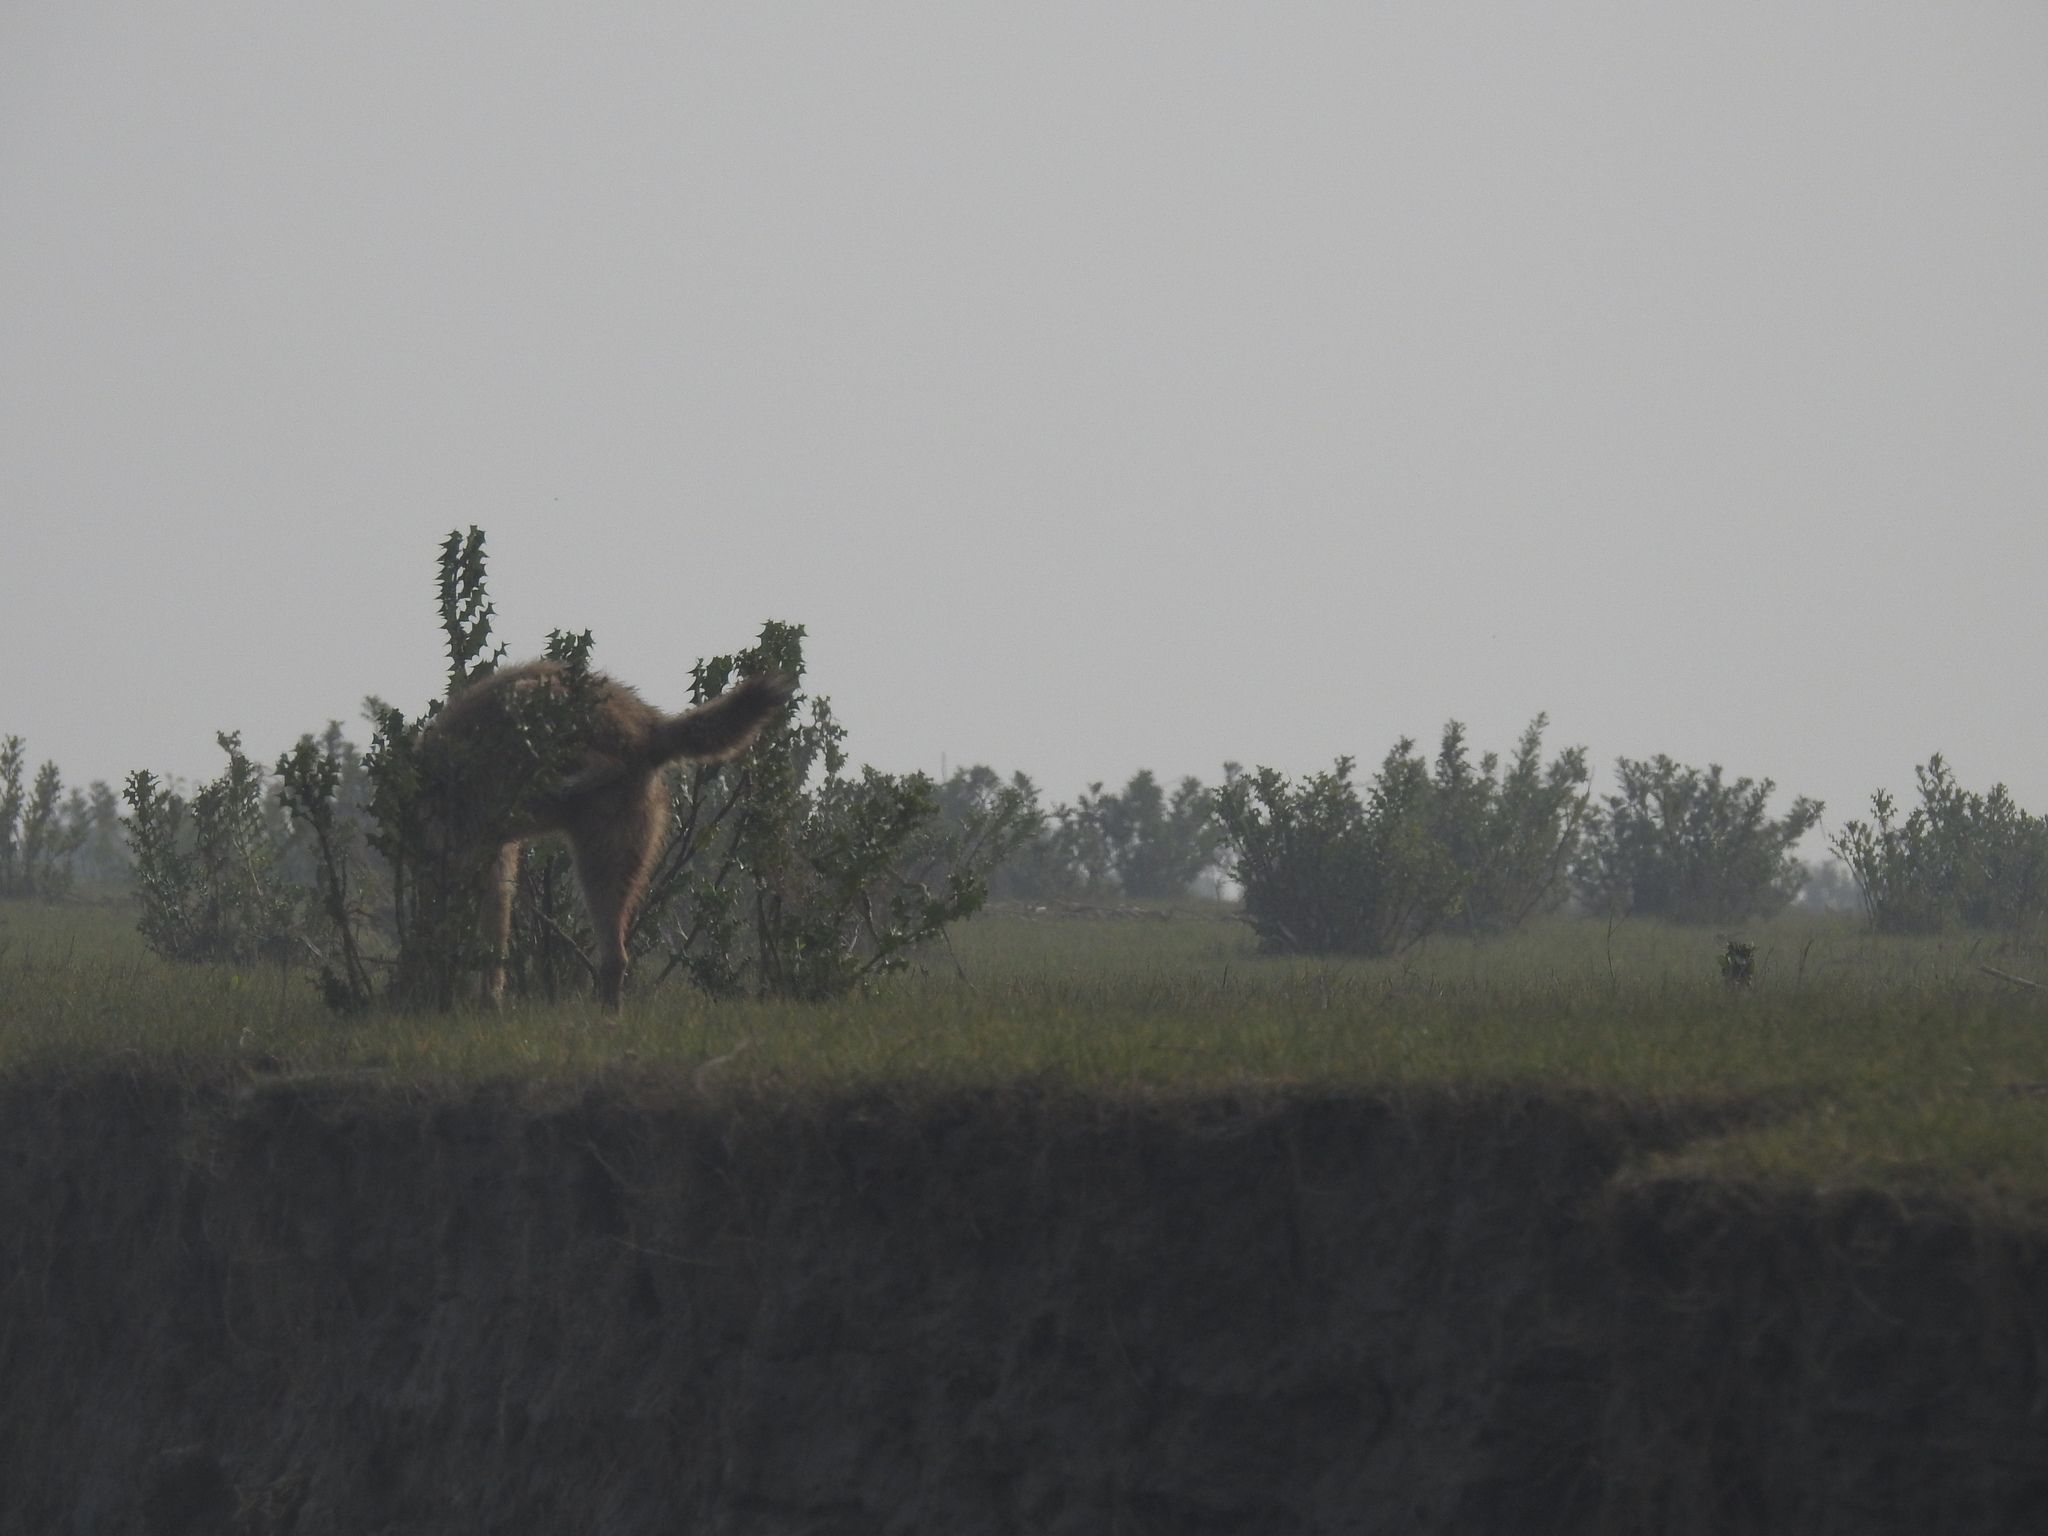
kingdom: Animalia
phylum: Chordata
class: Mammalia
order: Carnivora
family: Canidae
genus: Canis
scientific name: Canis aureus
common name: Golden jackal
